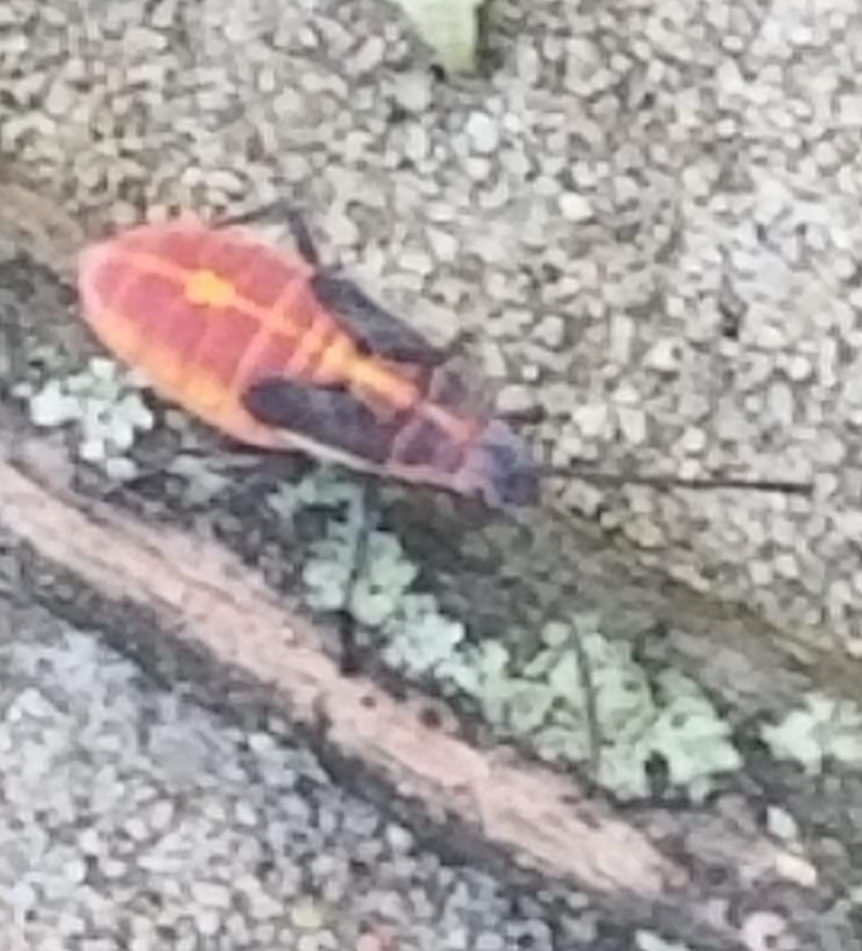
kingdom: Animalia
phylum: Arthropoda
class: Insecta
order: Hemiptera
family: Rhopalidae
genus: Boisea
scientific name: Boisea trivittata
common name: Boxelder bug
